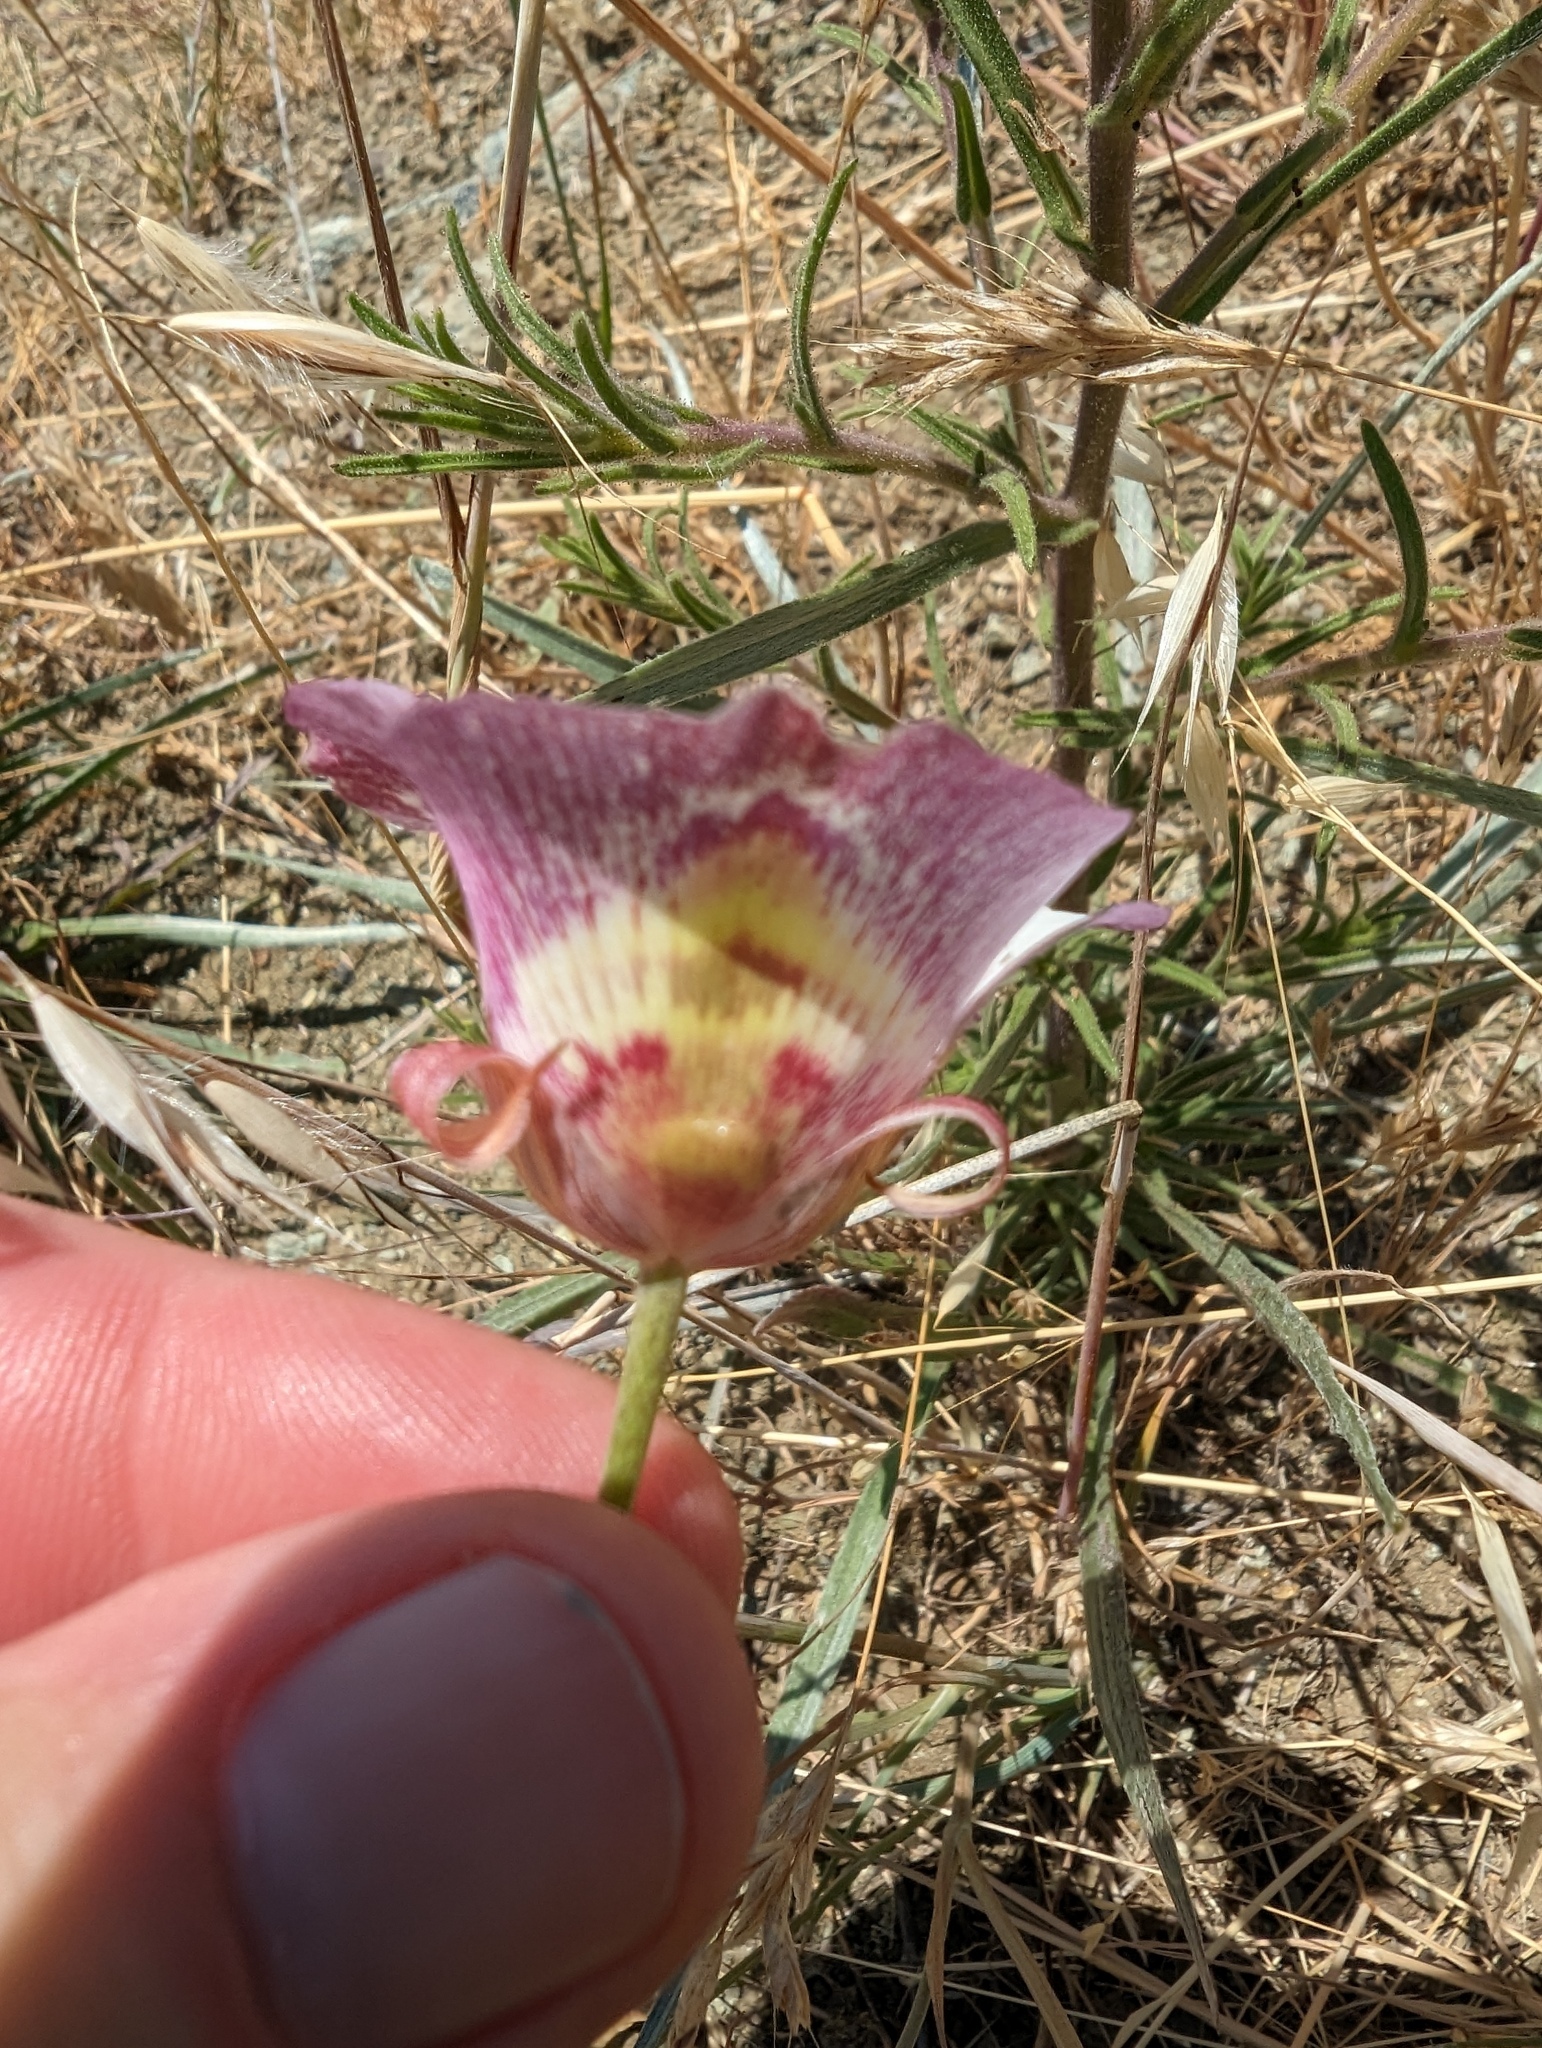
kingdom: Plantae
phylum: Tracheophyta
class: Liliopsida
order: Liliales
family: Liliaceae
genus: Calochortus
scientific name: Calochortus argillosus
